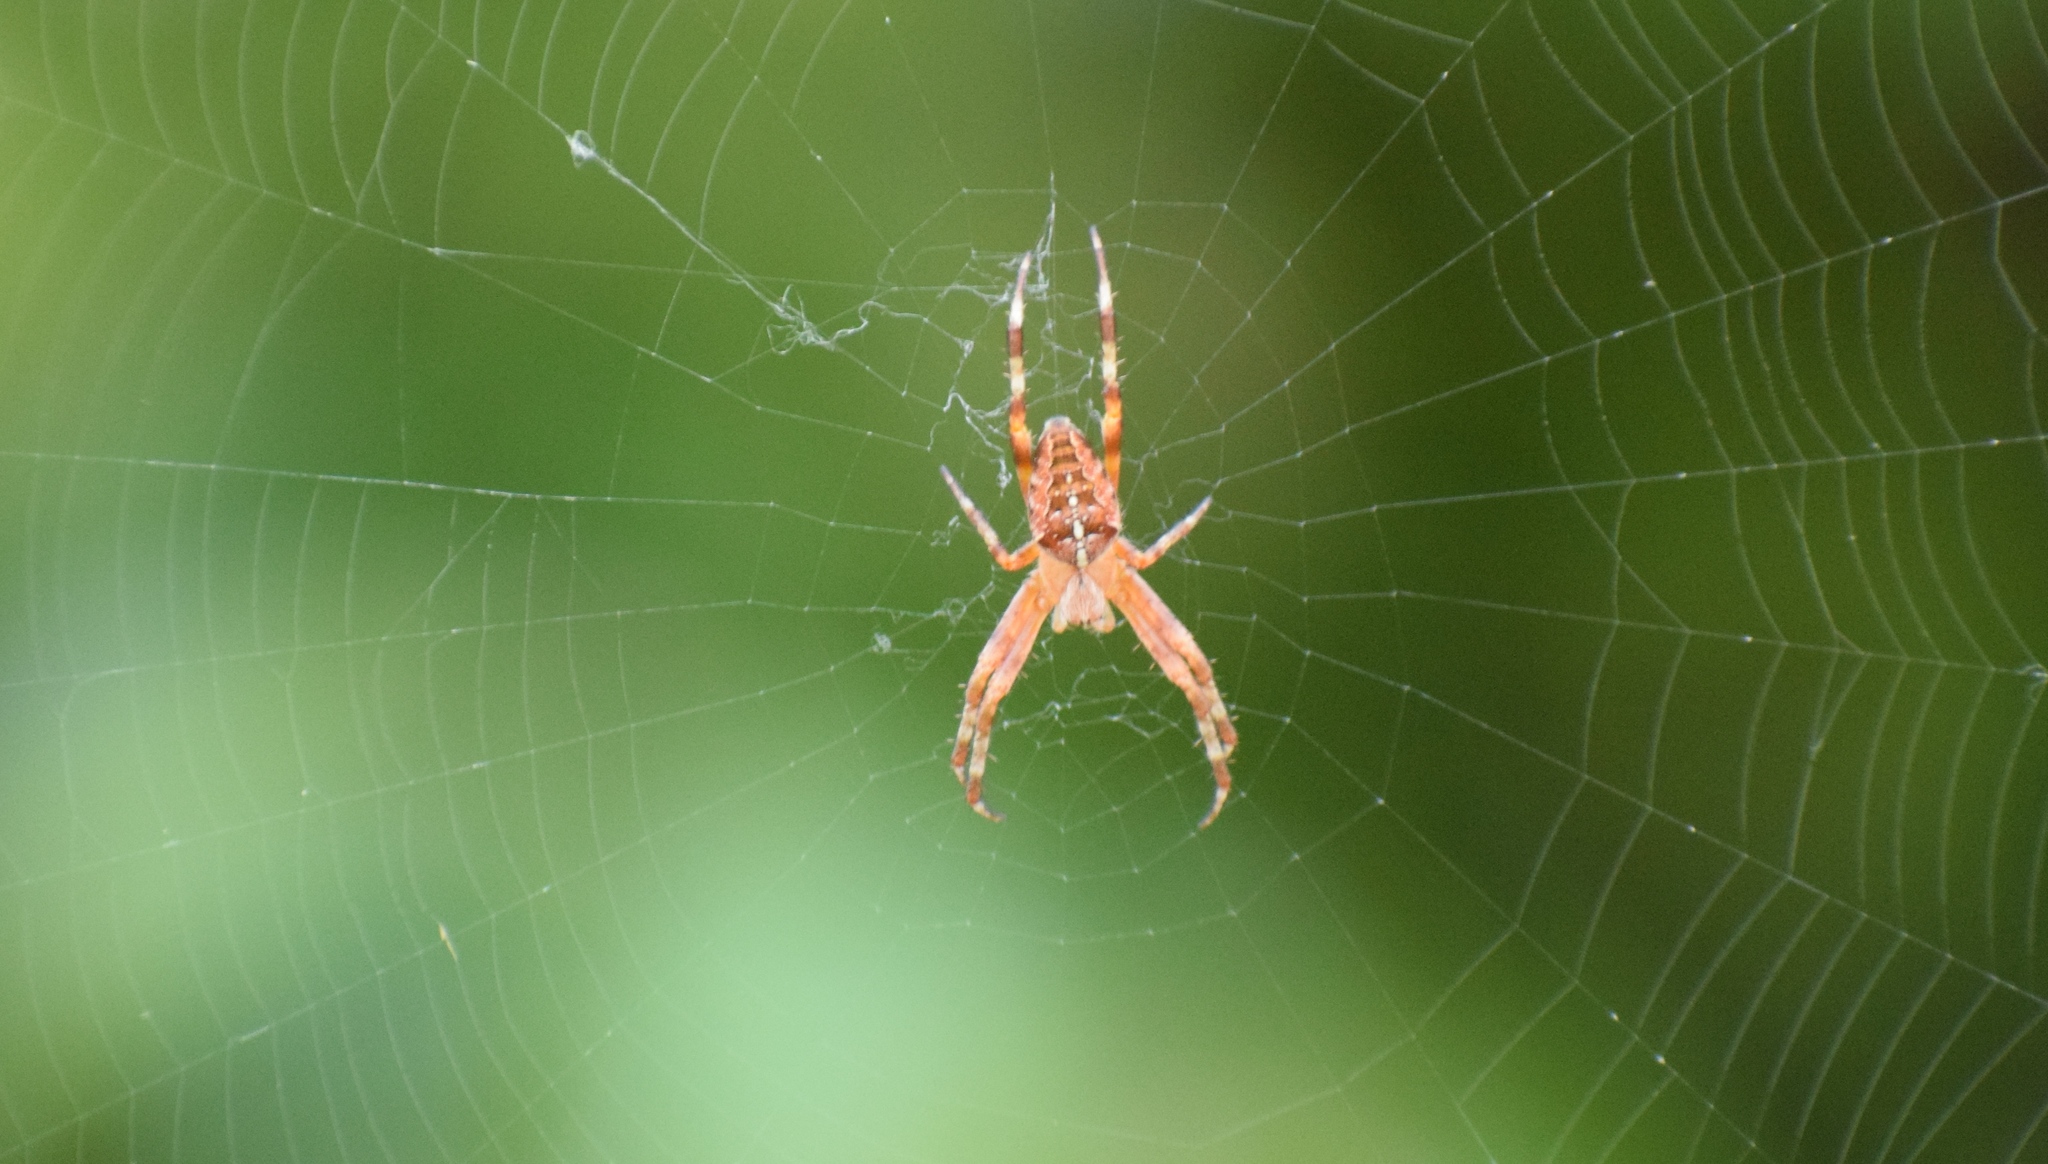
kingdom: Animalia
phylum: Arthropoda
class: Arachnida
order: Araneae
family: Araneidae
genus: Araneus
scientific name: Araneus diadematus
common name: Cross orbweaver
